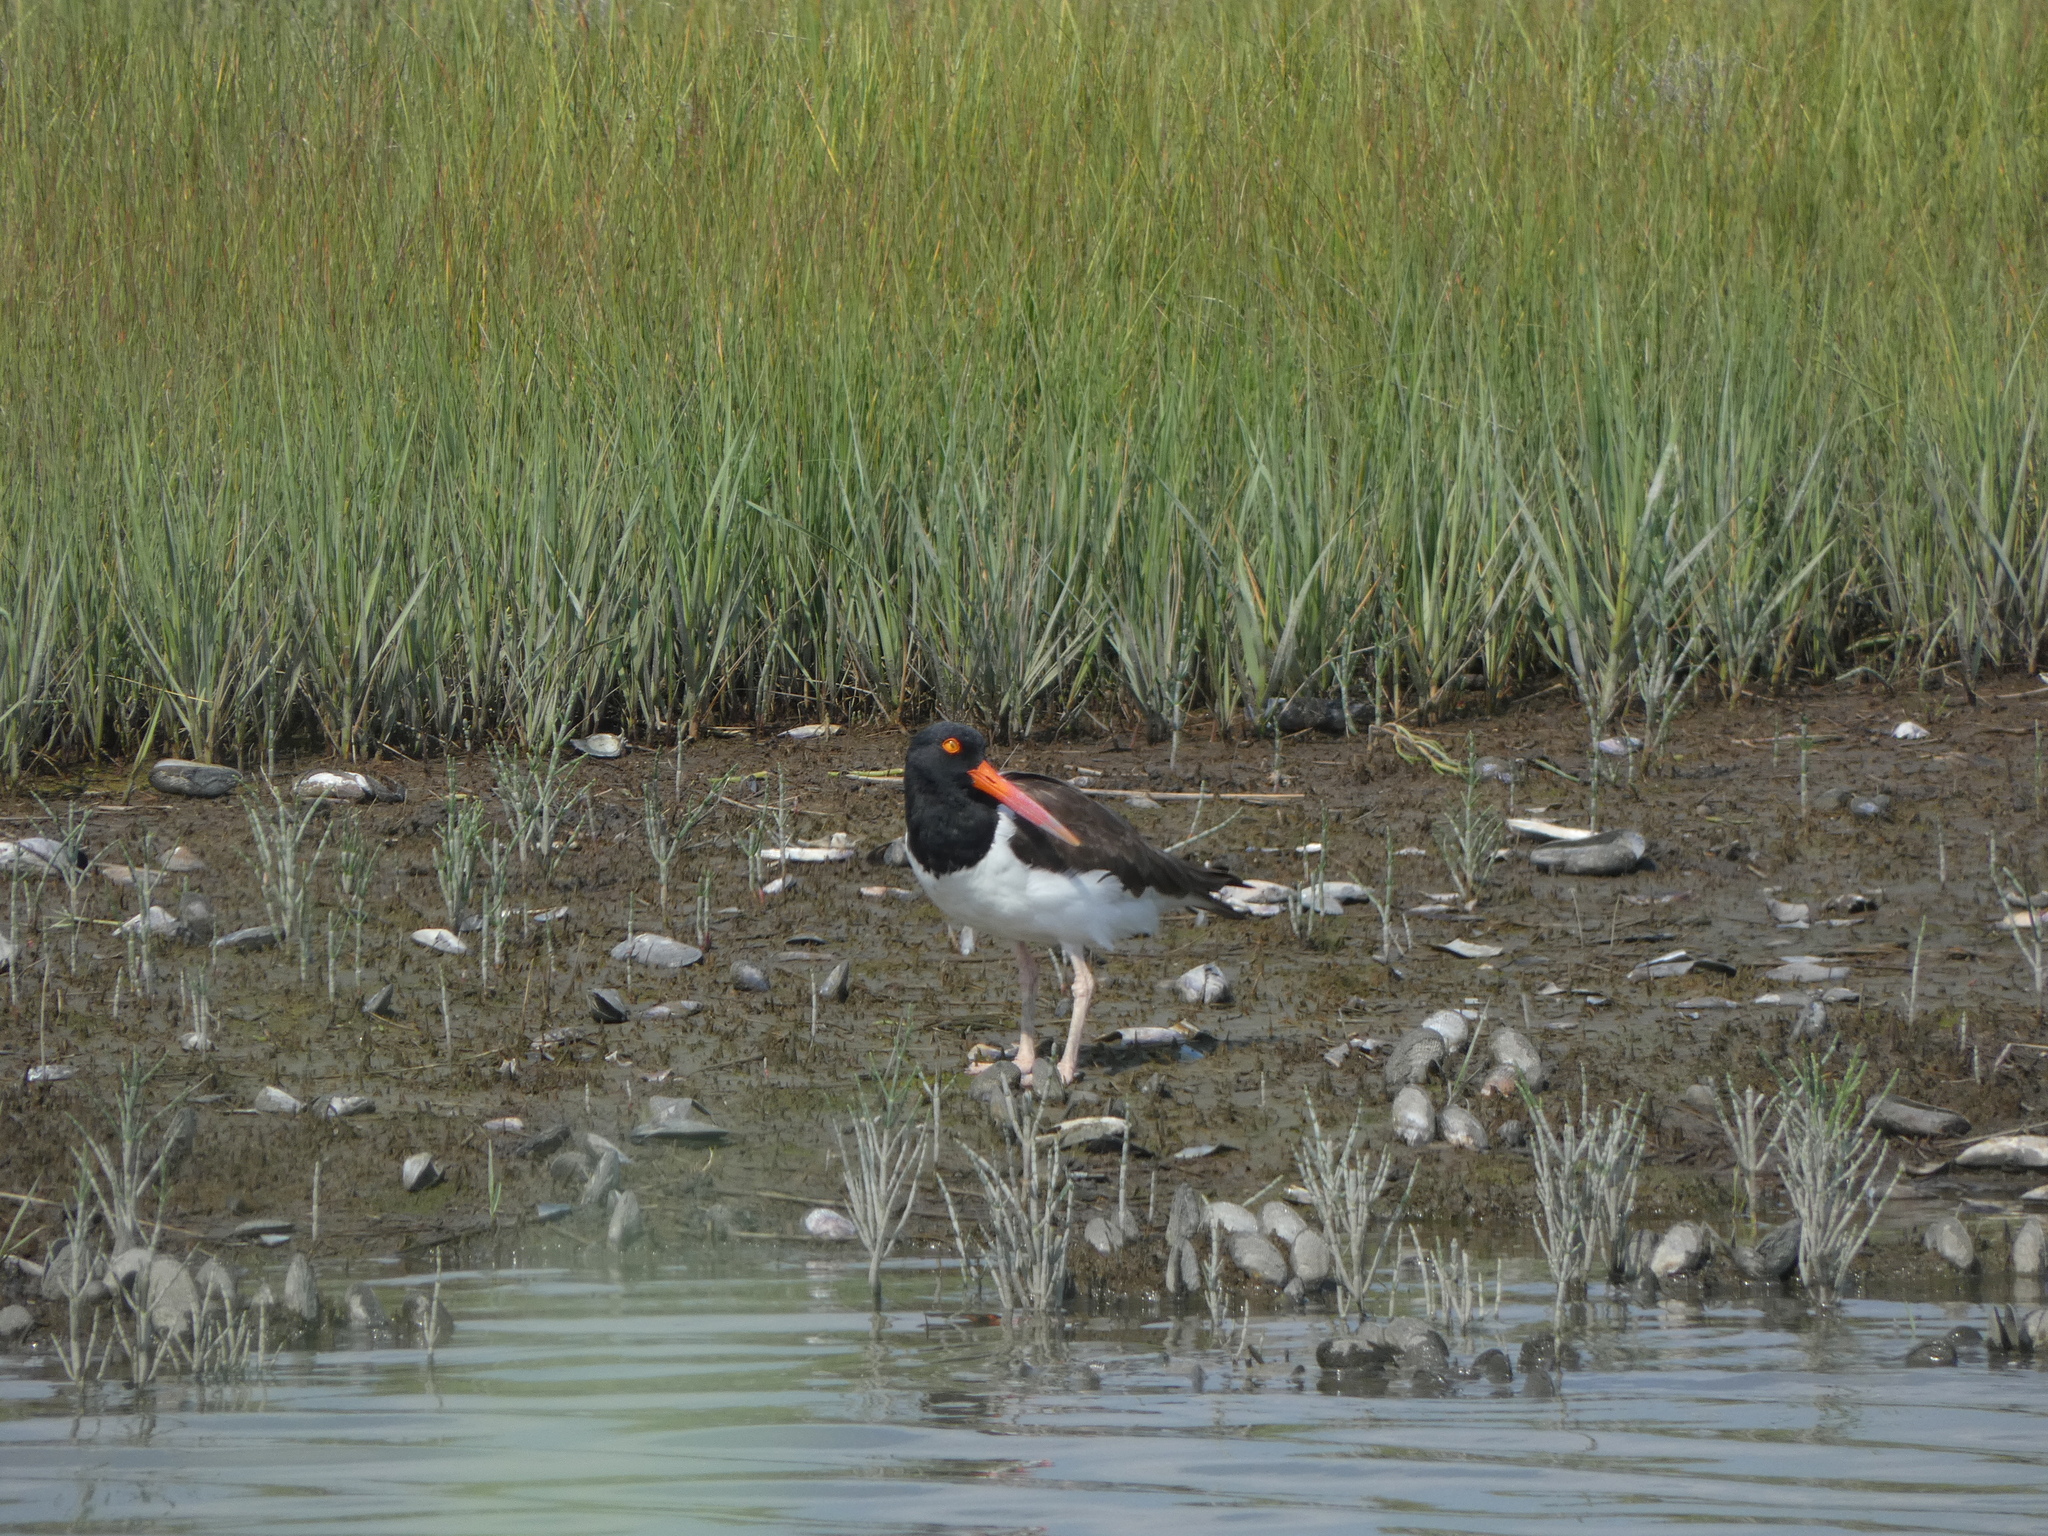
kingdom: Animalia
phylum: Chordata
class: Aves
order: Charadriiformes
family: Haematopodidae
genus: Haematopus
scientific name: Haematopus palliatus
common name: American oystercatcher
